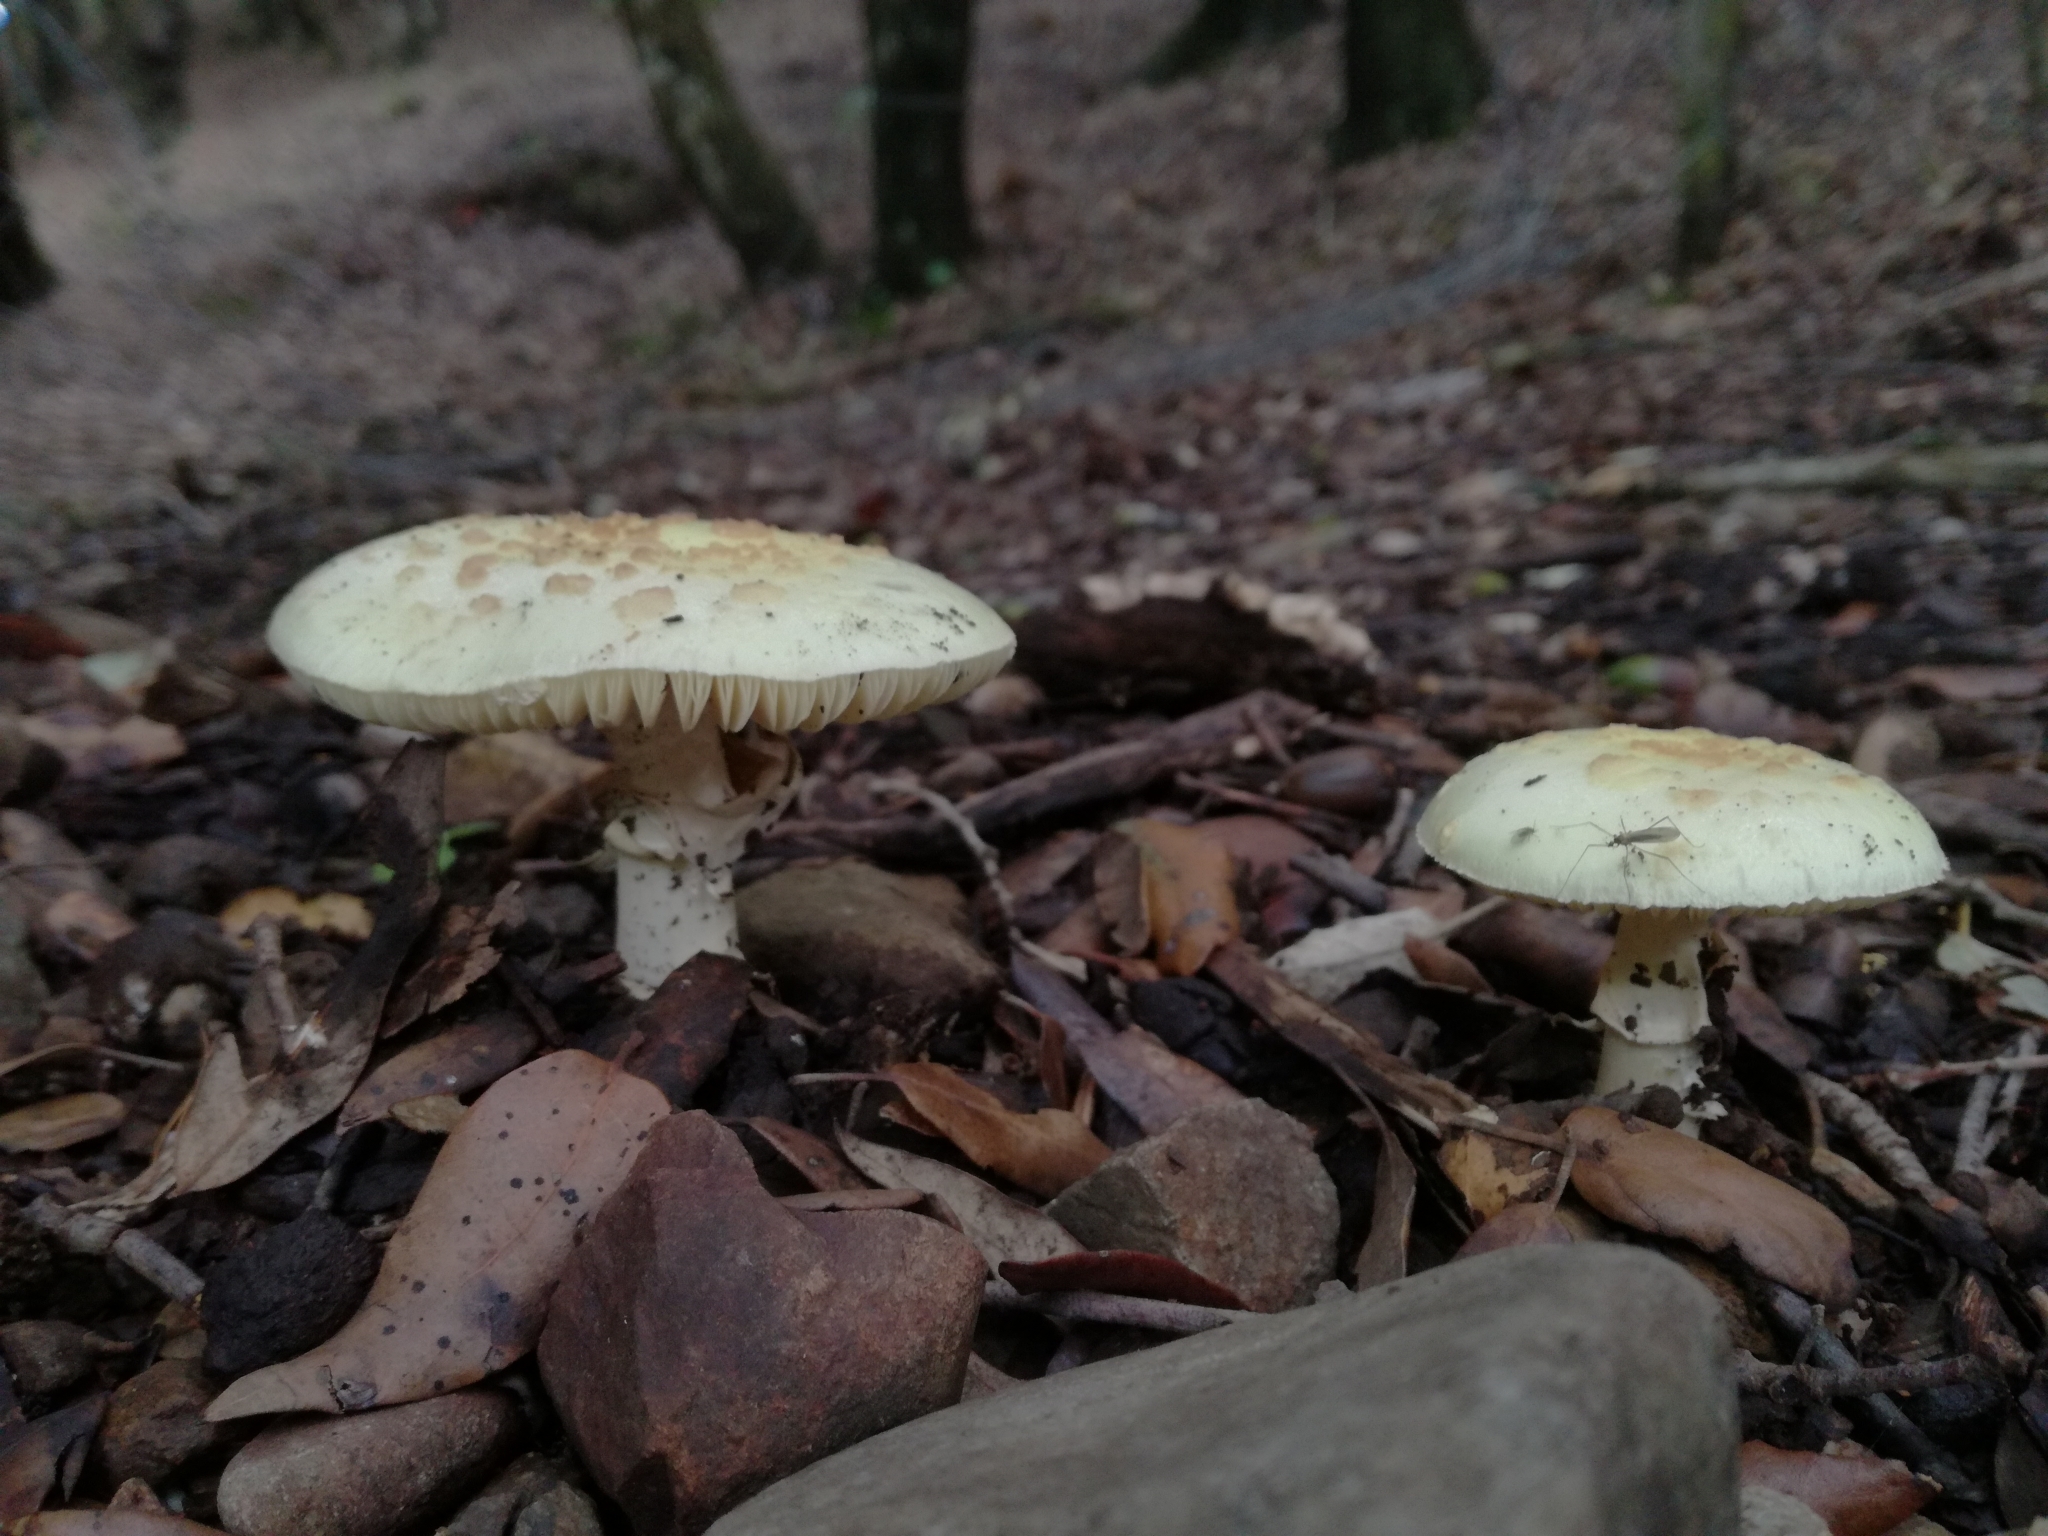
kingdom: Fungi
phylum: Basidiomycota
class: Agaricomycetes
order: Agaricales
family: Amanitaceae
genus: Amanita
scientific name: Amanita citrina
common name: False death-cap
